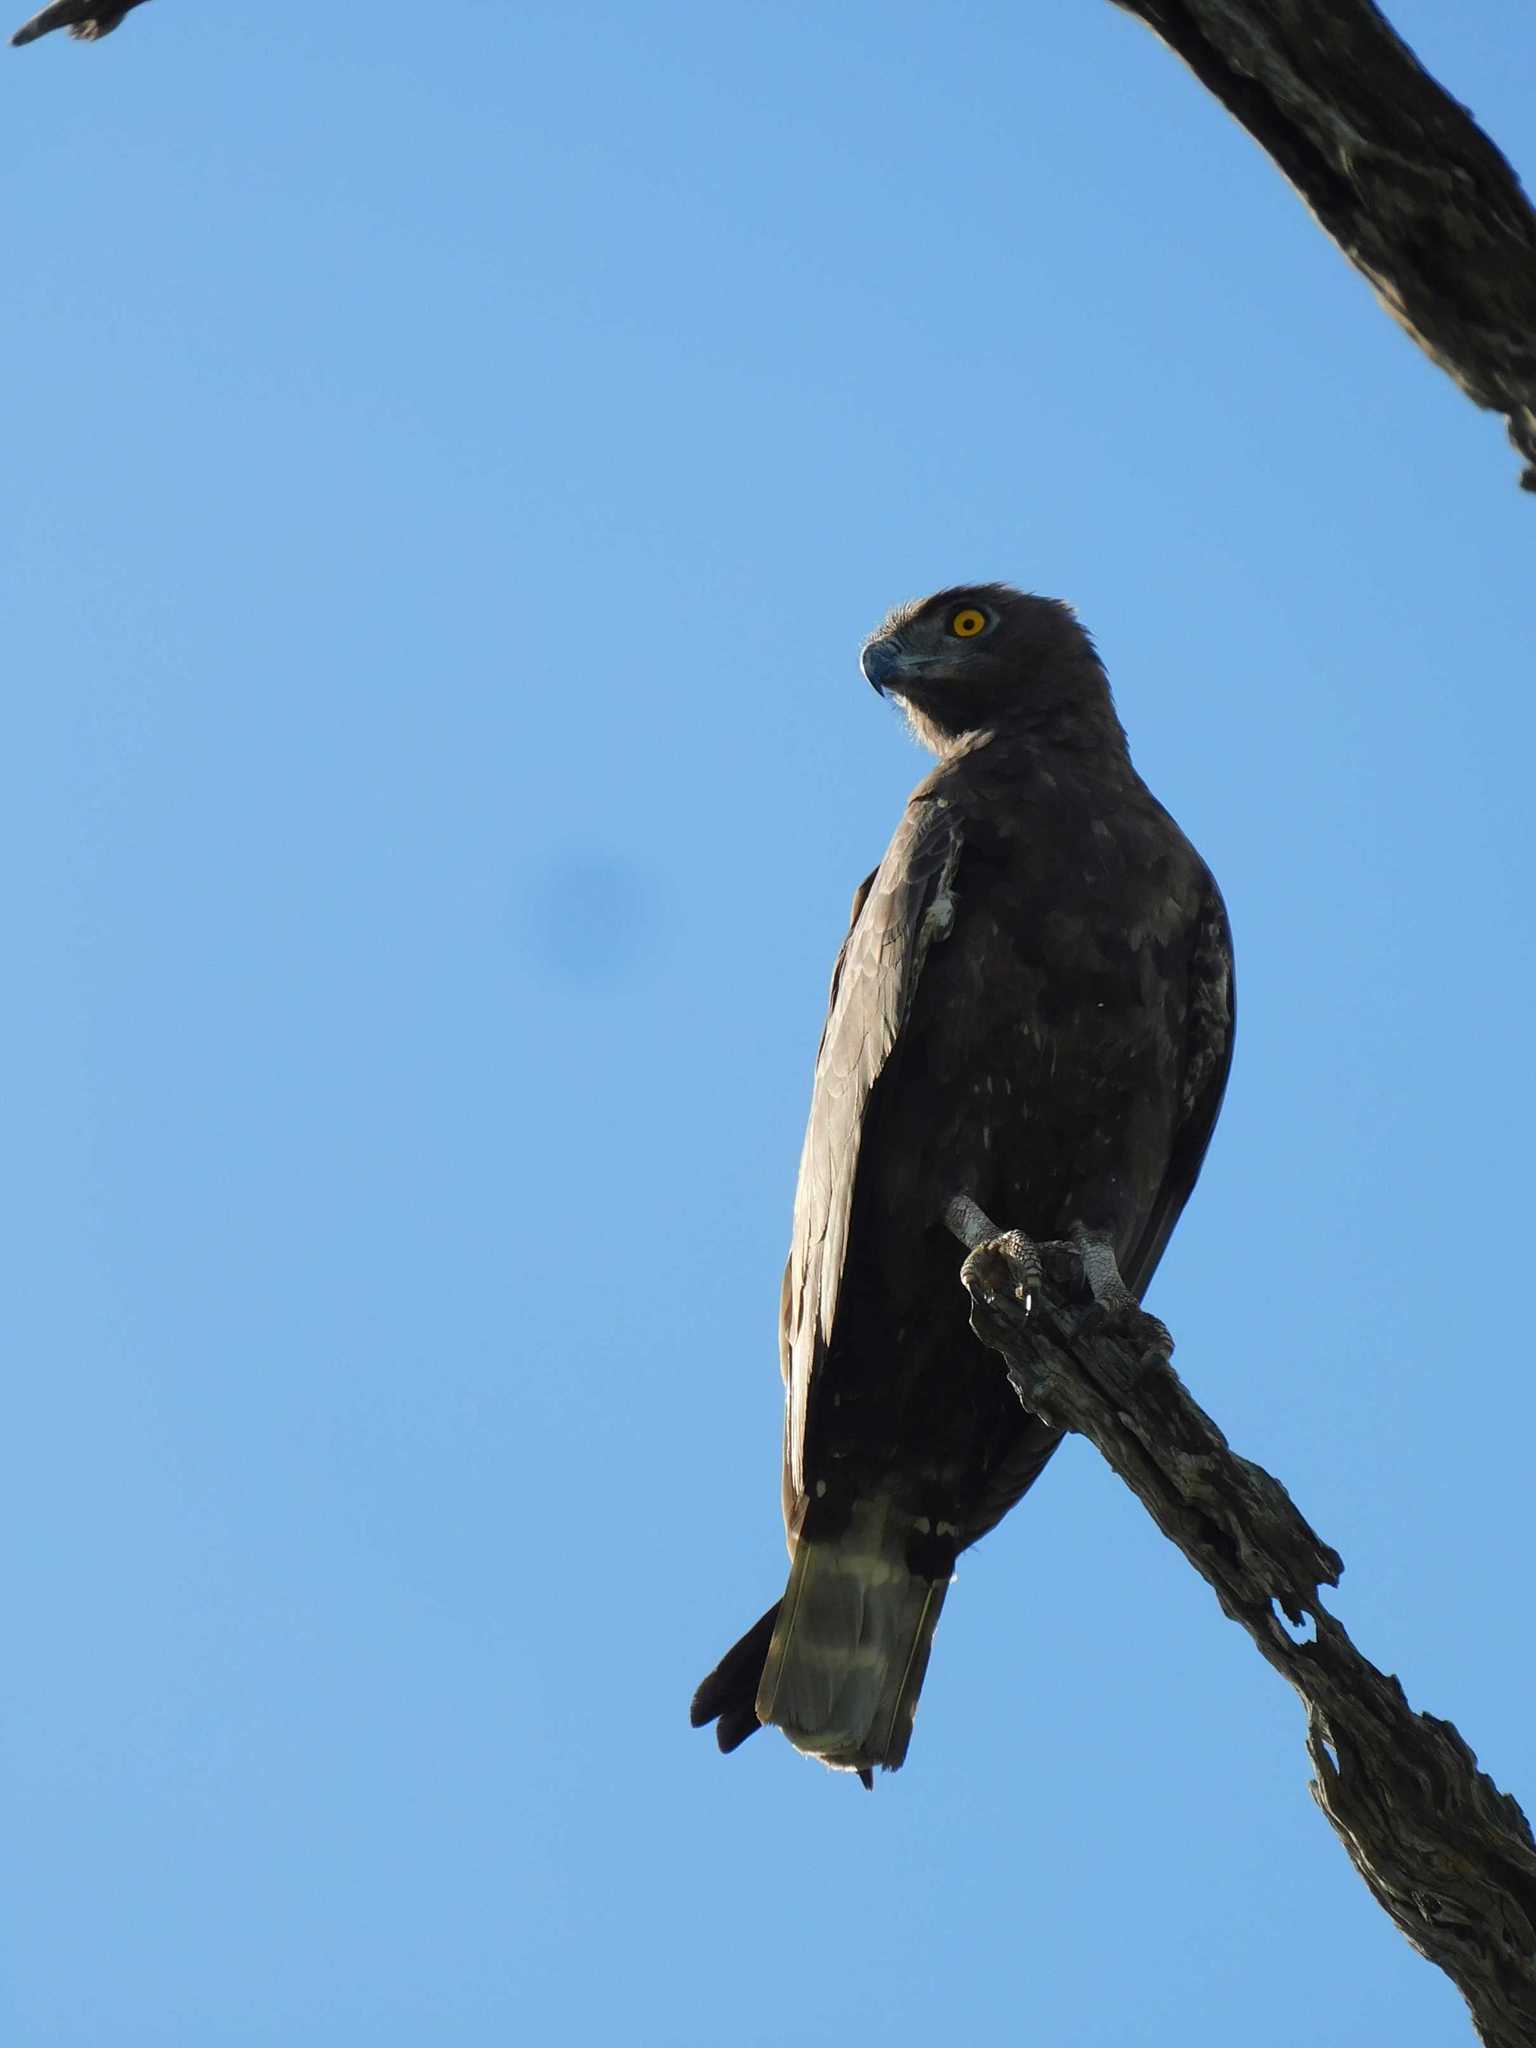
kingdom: Animalia
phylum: Chordata
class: Aves
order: Accipitriformes
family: Accipitridae
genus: Circaetus
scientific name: Circaetus cinereus
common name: Brown snake eagle
